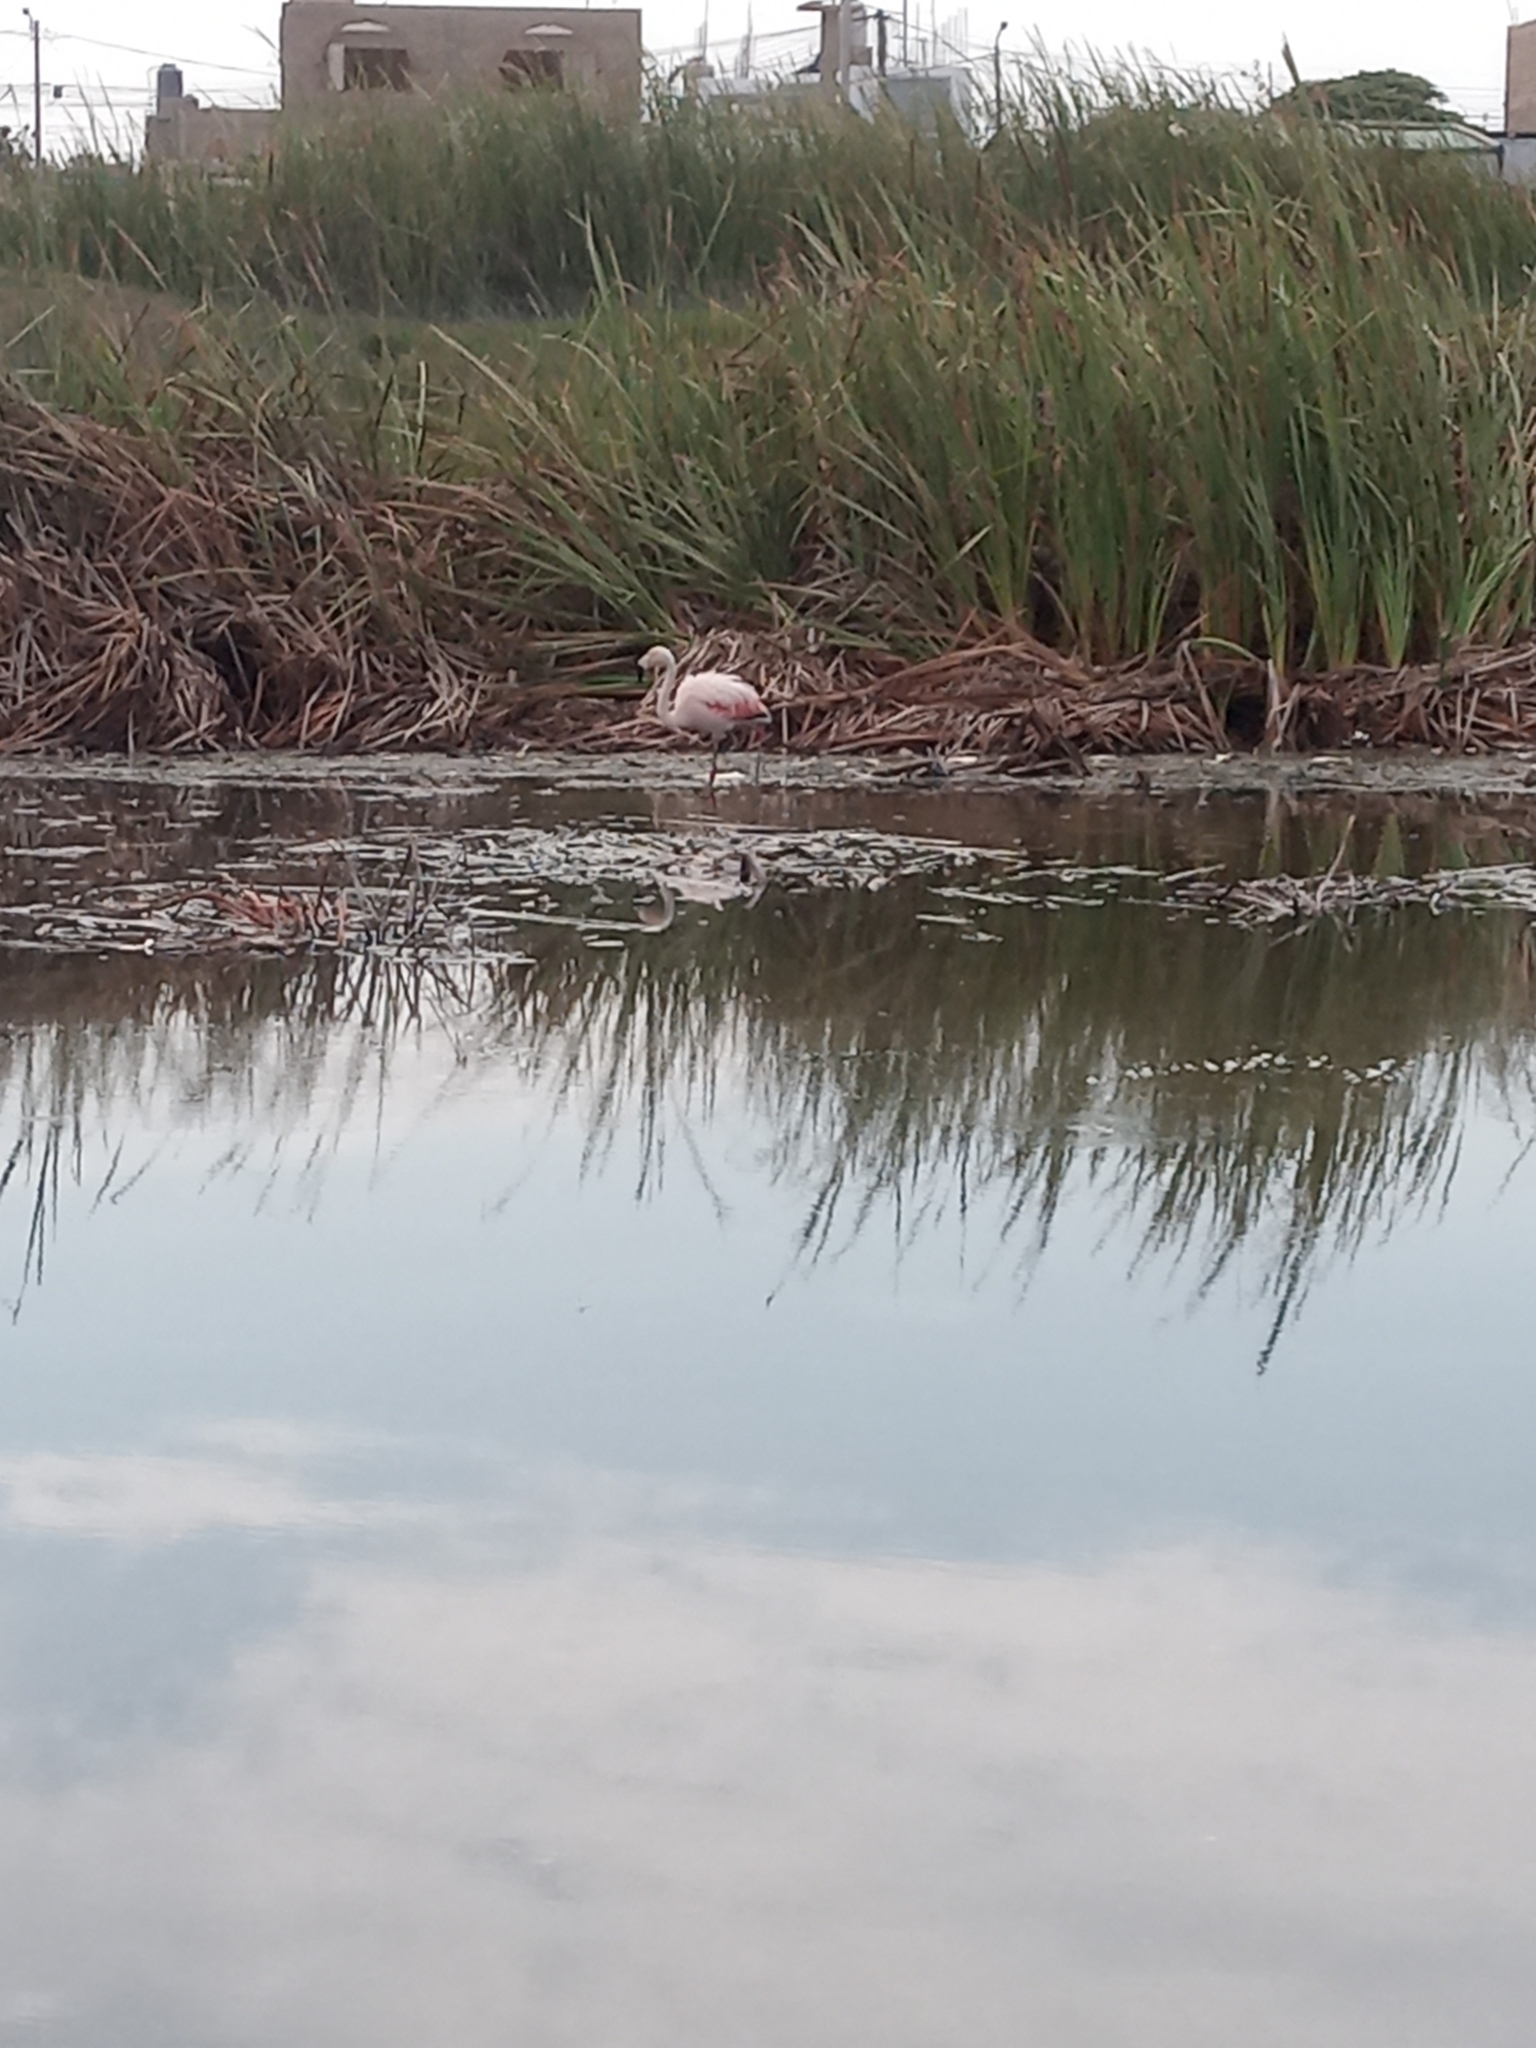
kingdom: Animalia
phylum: Chordata
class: Aves
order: Phoenicopteriformes
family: Phoenicopteridae
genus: Phoenicopterus
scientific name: Phoenicopterus chilensis
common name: Chilean flamingo
